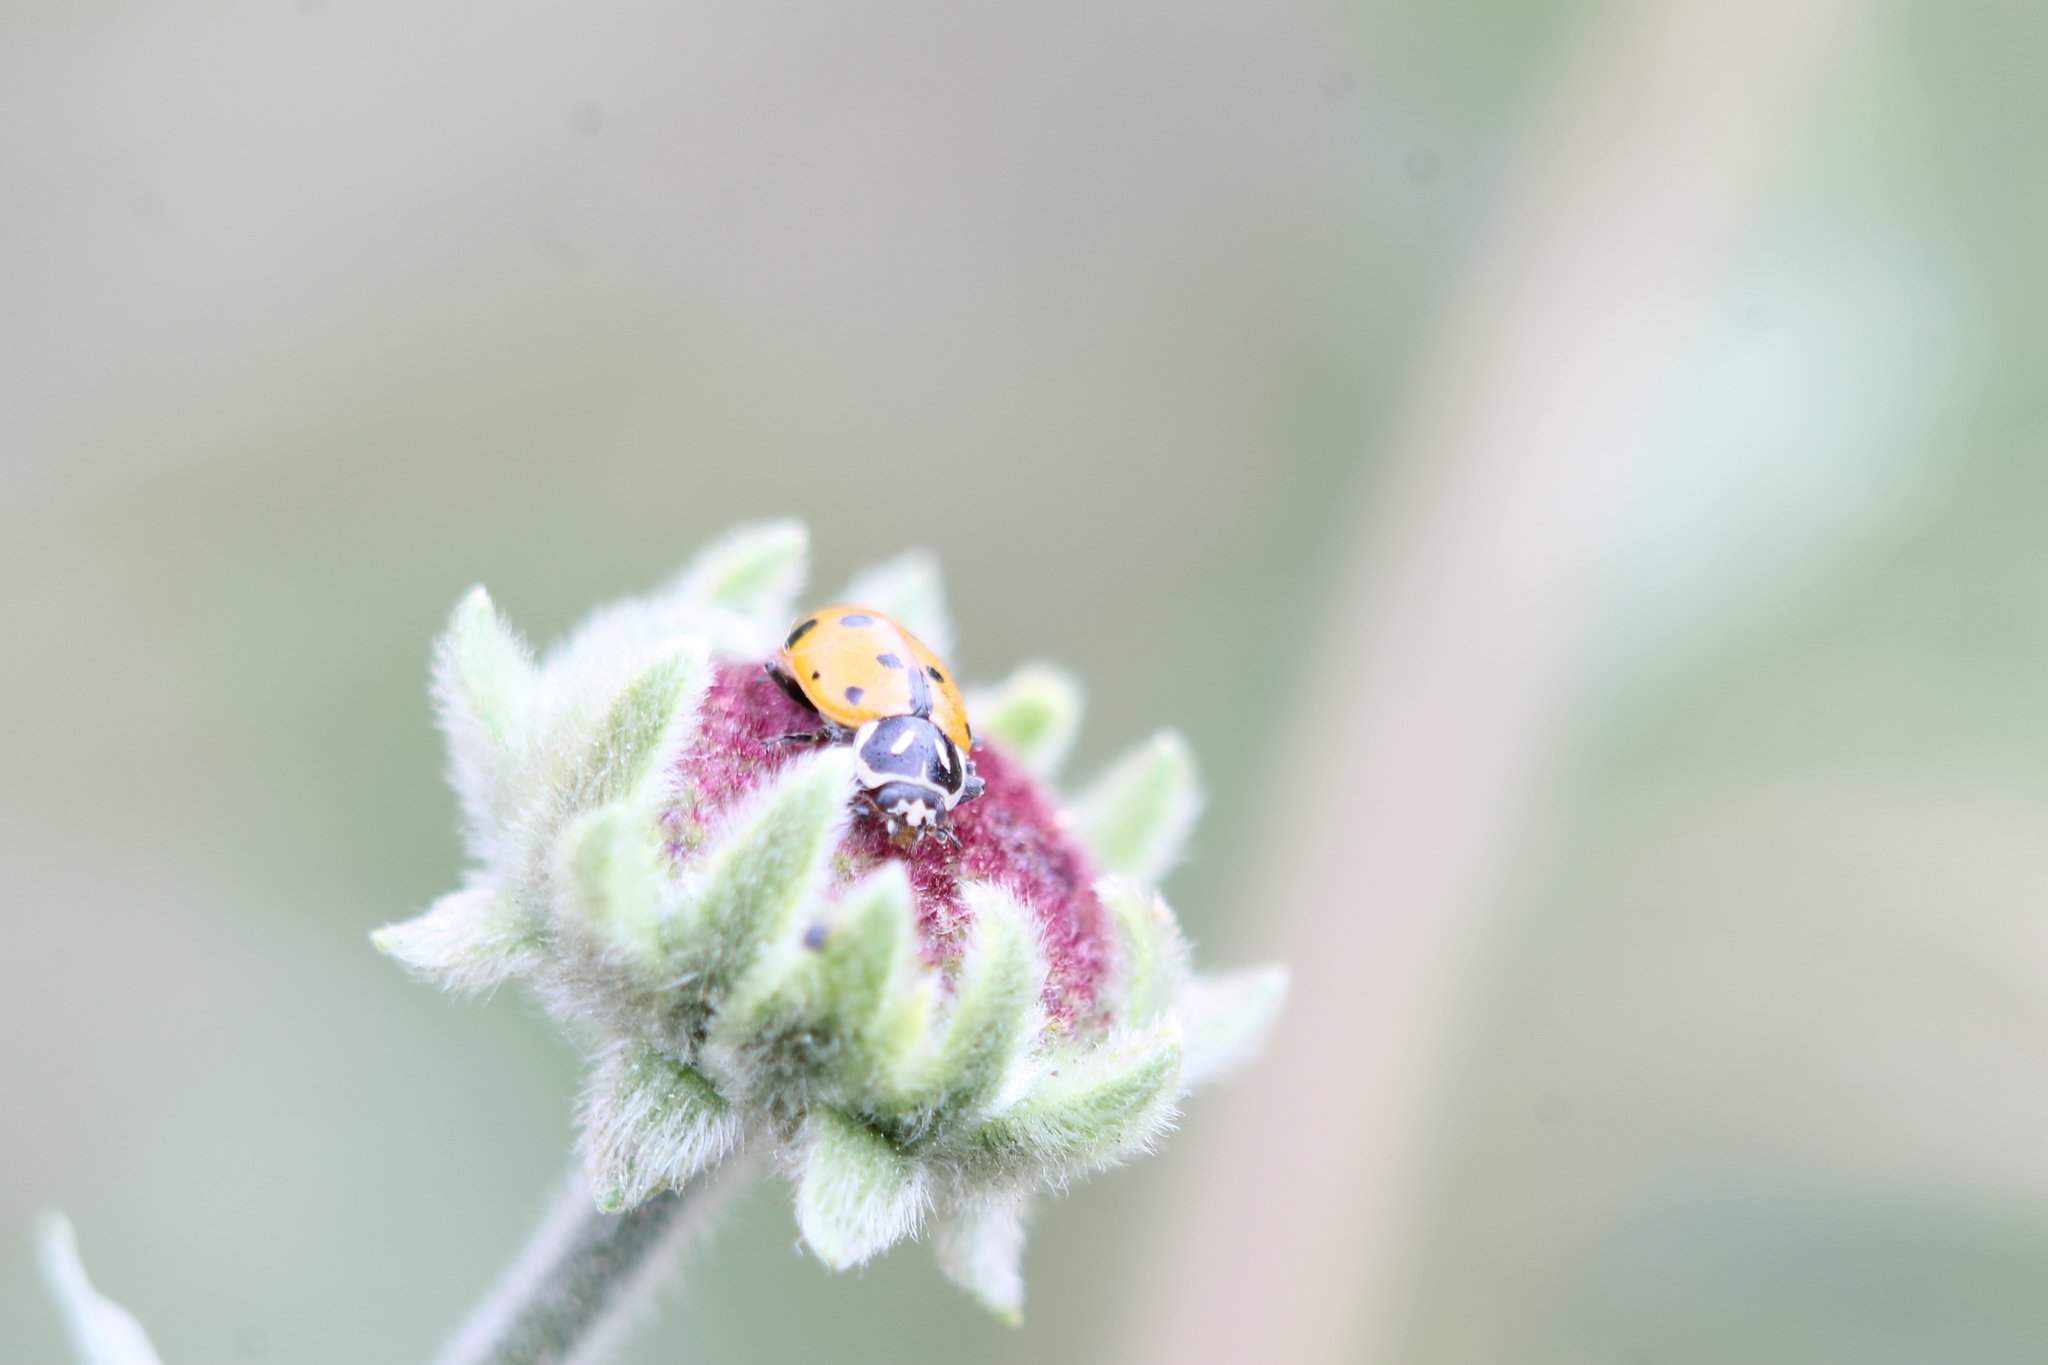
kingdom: Animalia
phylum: Arthropoda
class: Insecta
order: Coleoptera
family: Coccinellidae
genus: Hippodamia
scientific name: Hippodamia convergens
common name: Convergent lady beetle
